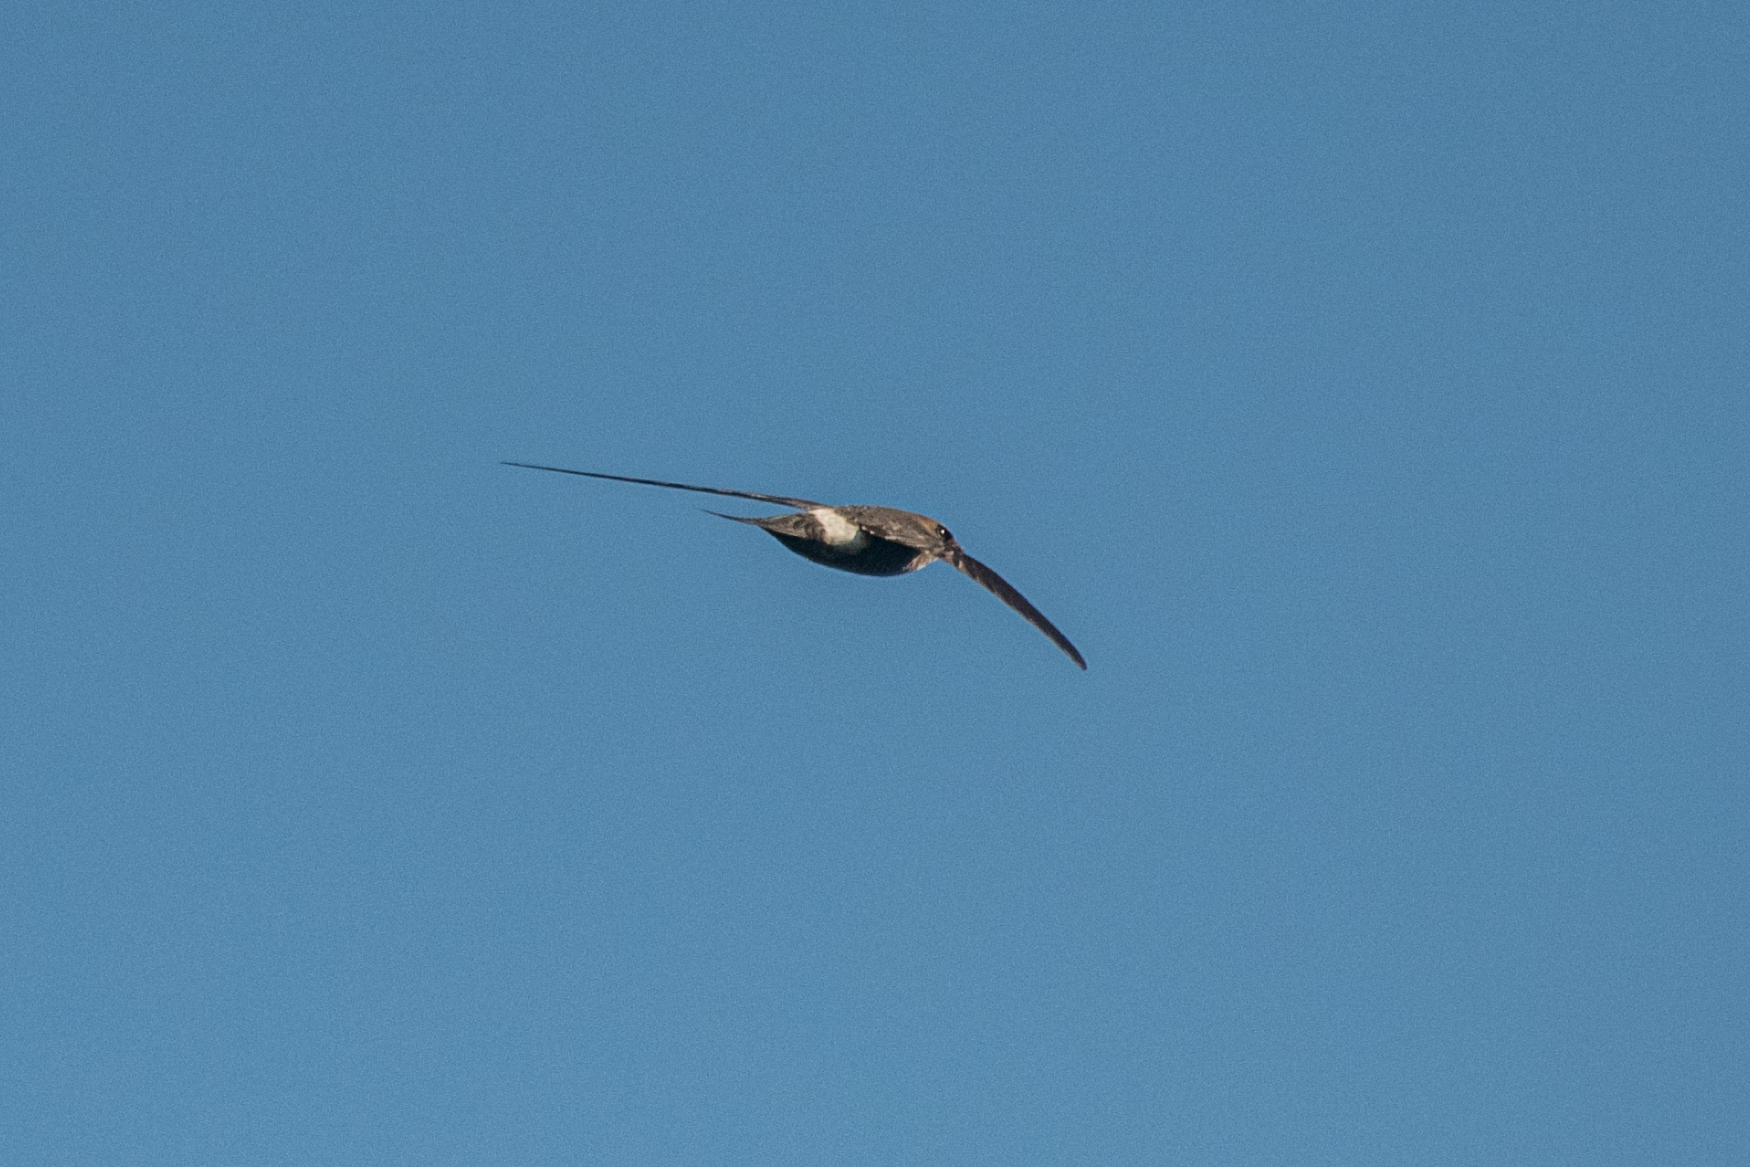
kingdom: Animalia
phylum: Chordata
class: Aves
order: Apodiformes
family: Apodidae
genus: Apus
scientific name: Apus pacificus
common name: Pacific swift
